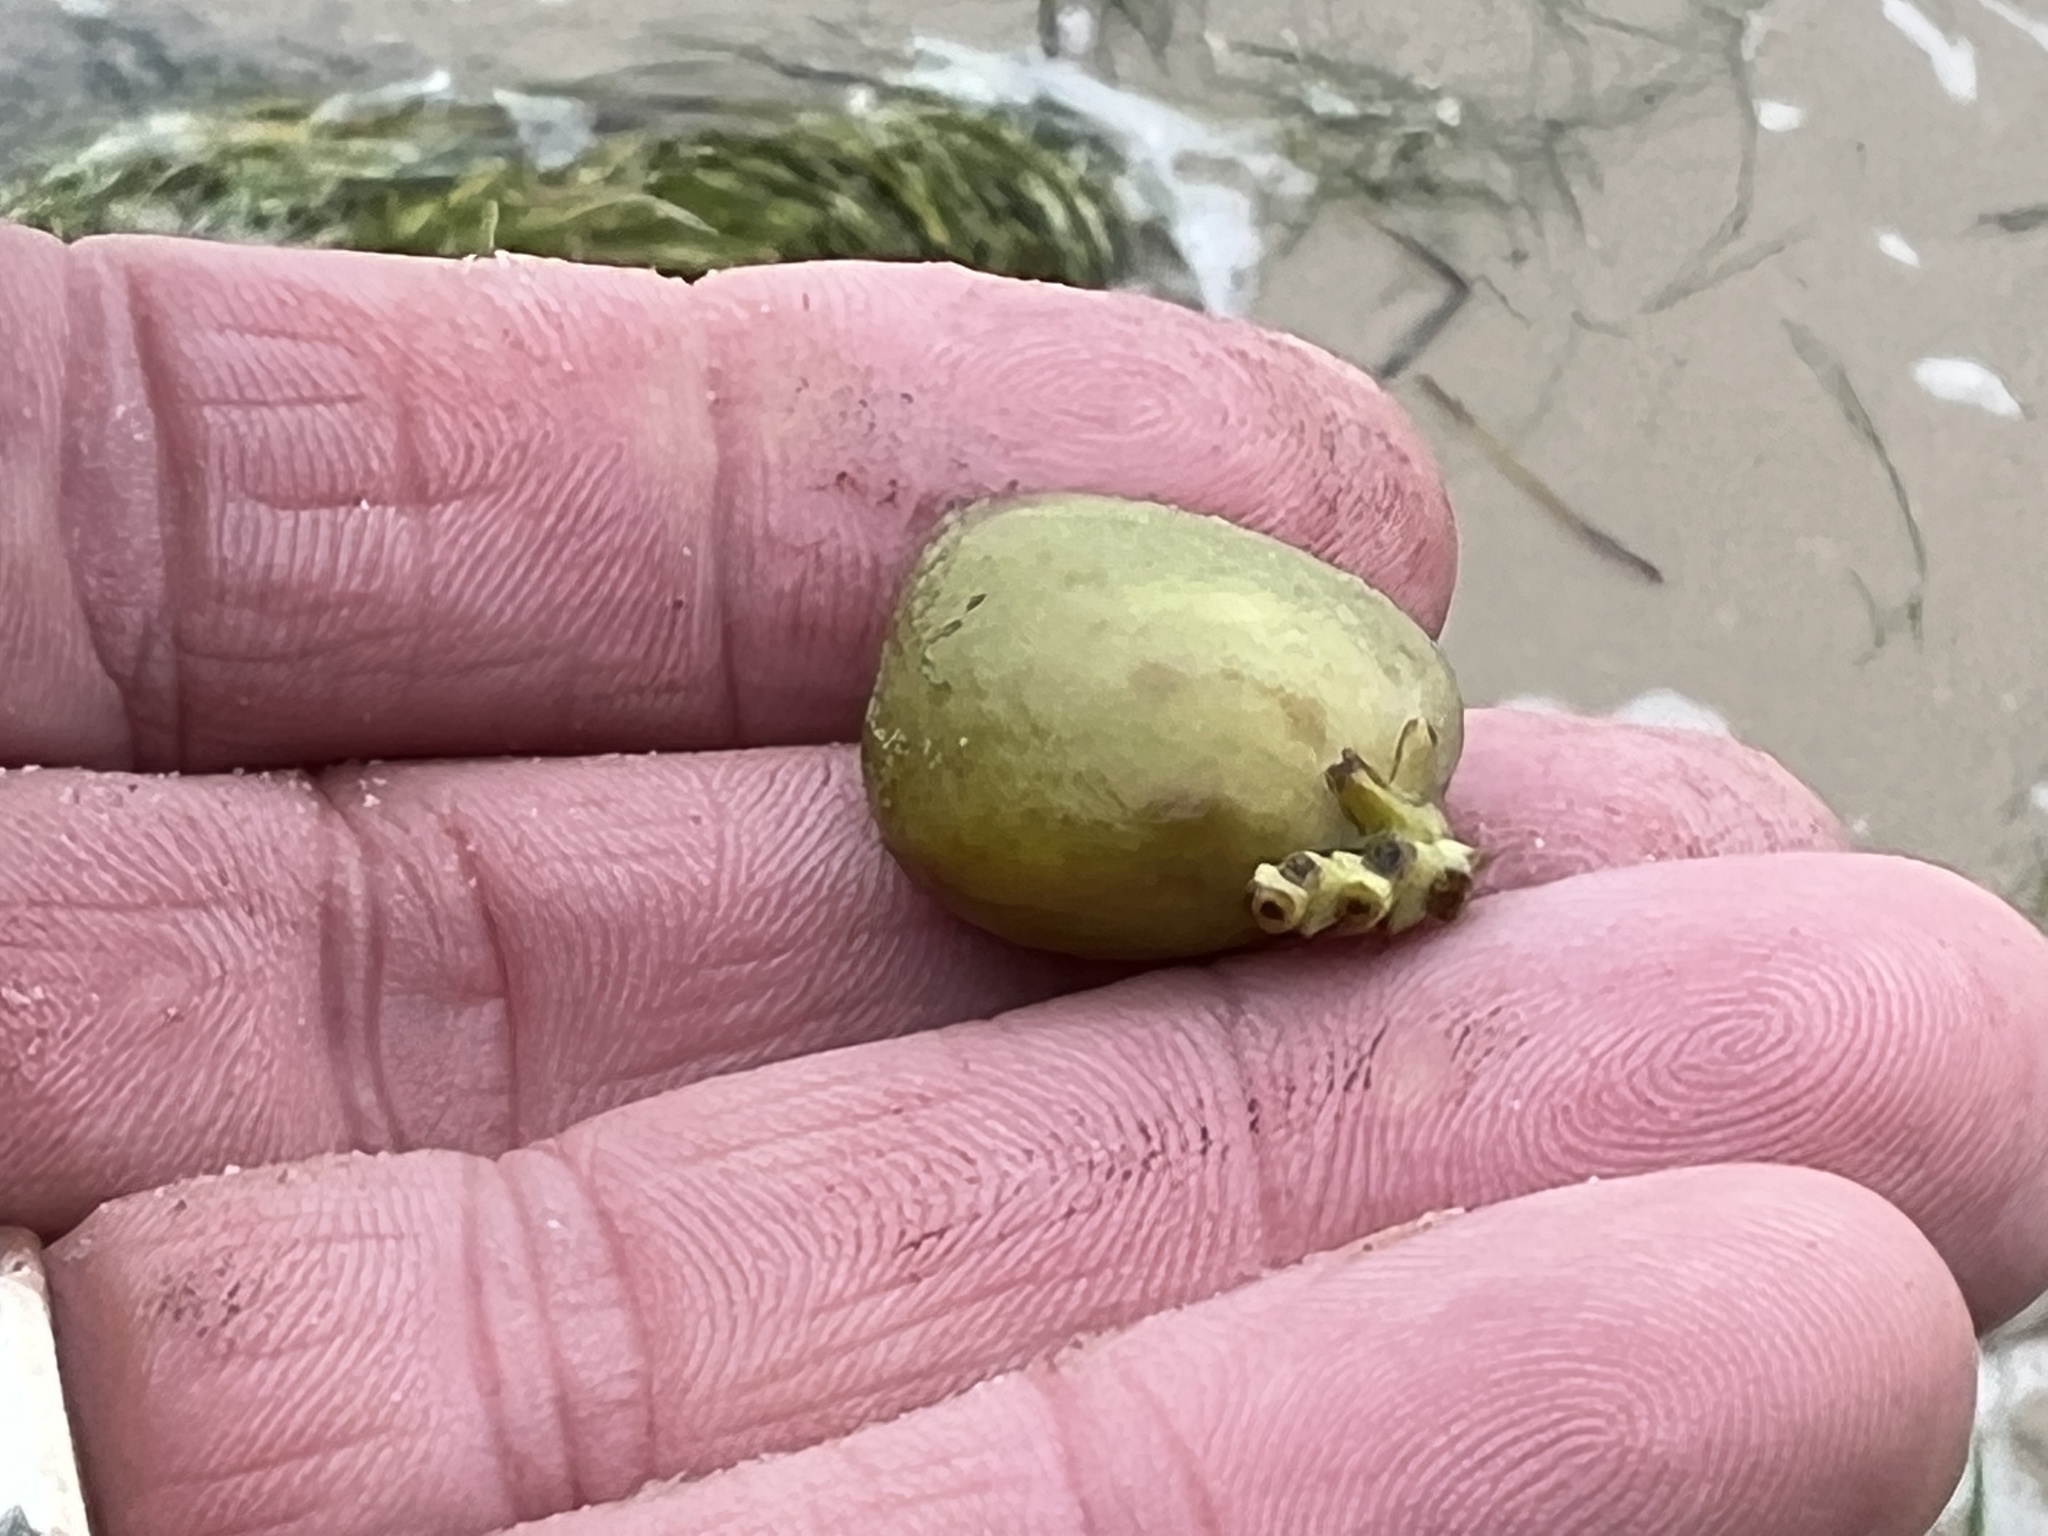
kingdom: Plantae
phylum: Tracheophyta
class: Magnoliopsida
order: Lamiales
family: Acanthaceae
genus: Avicennia
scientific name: Avicennia germinans
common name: Black mangrove
